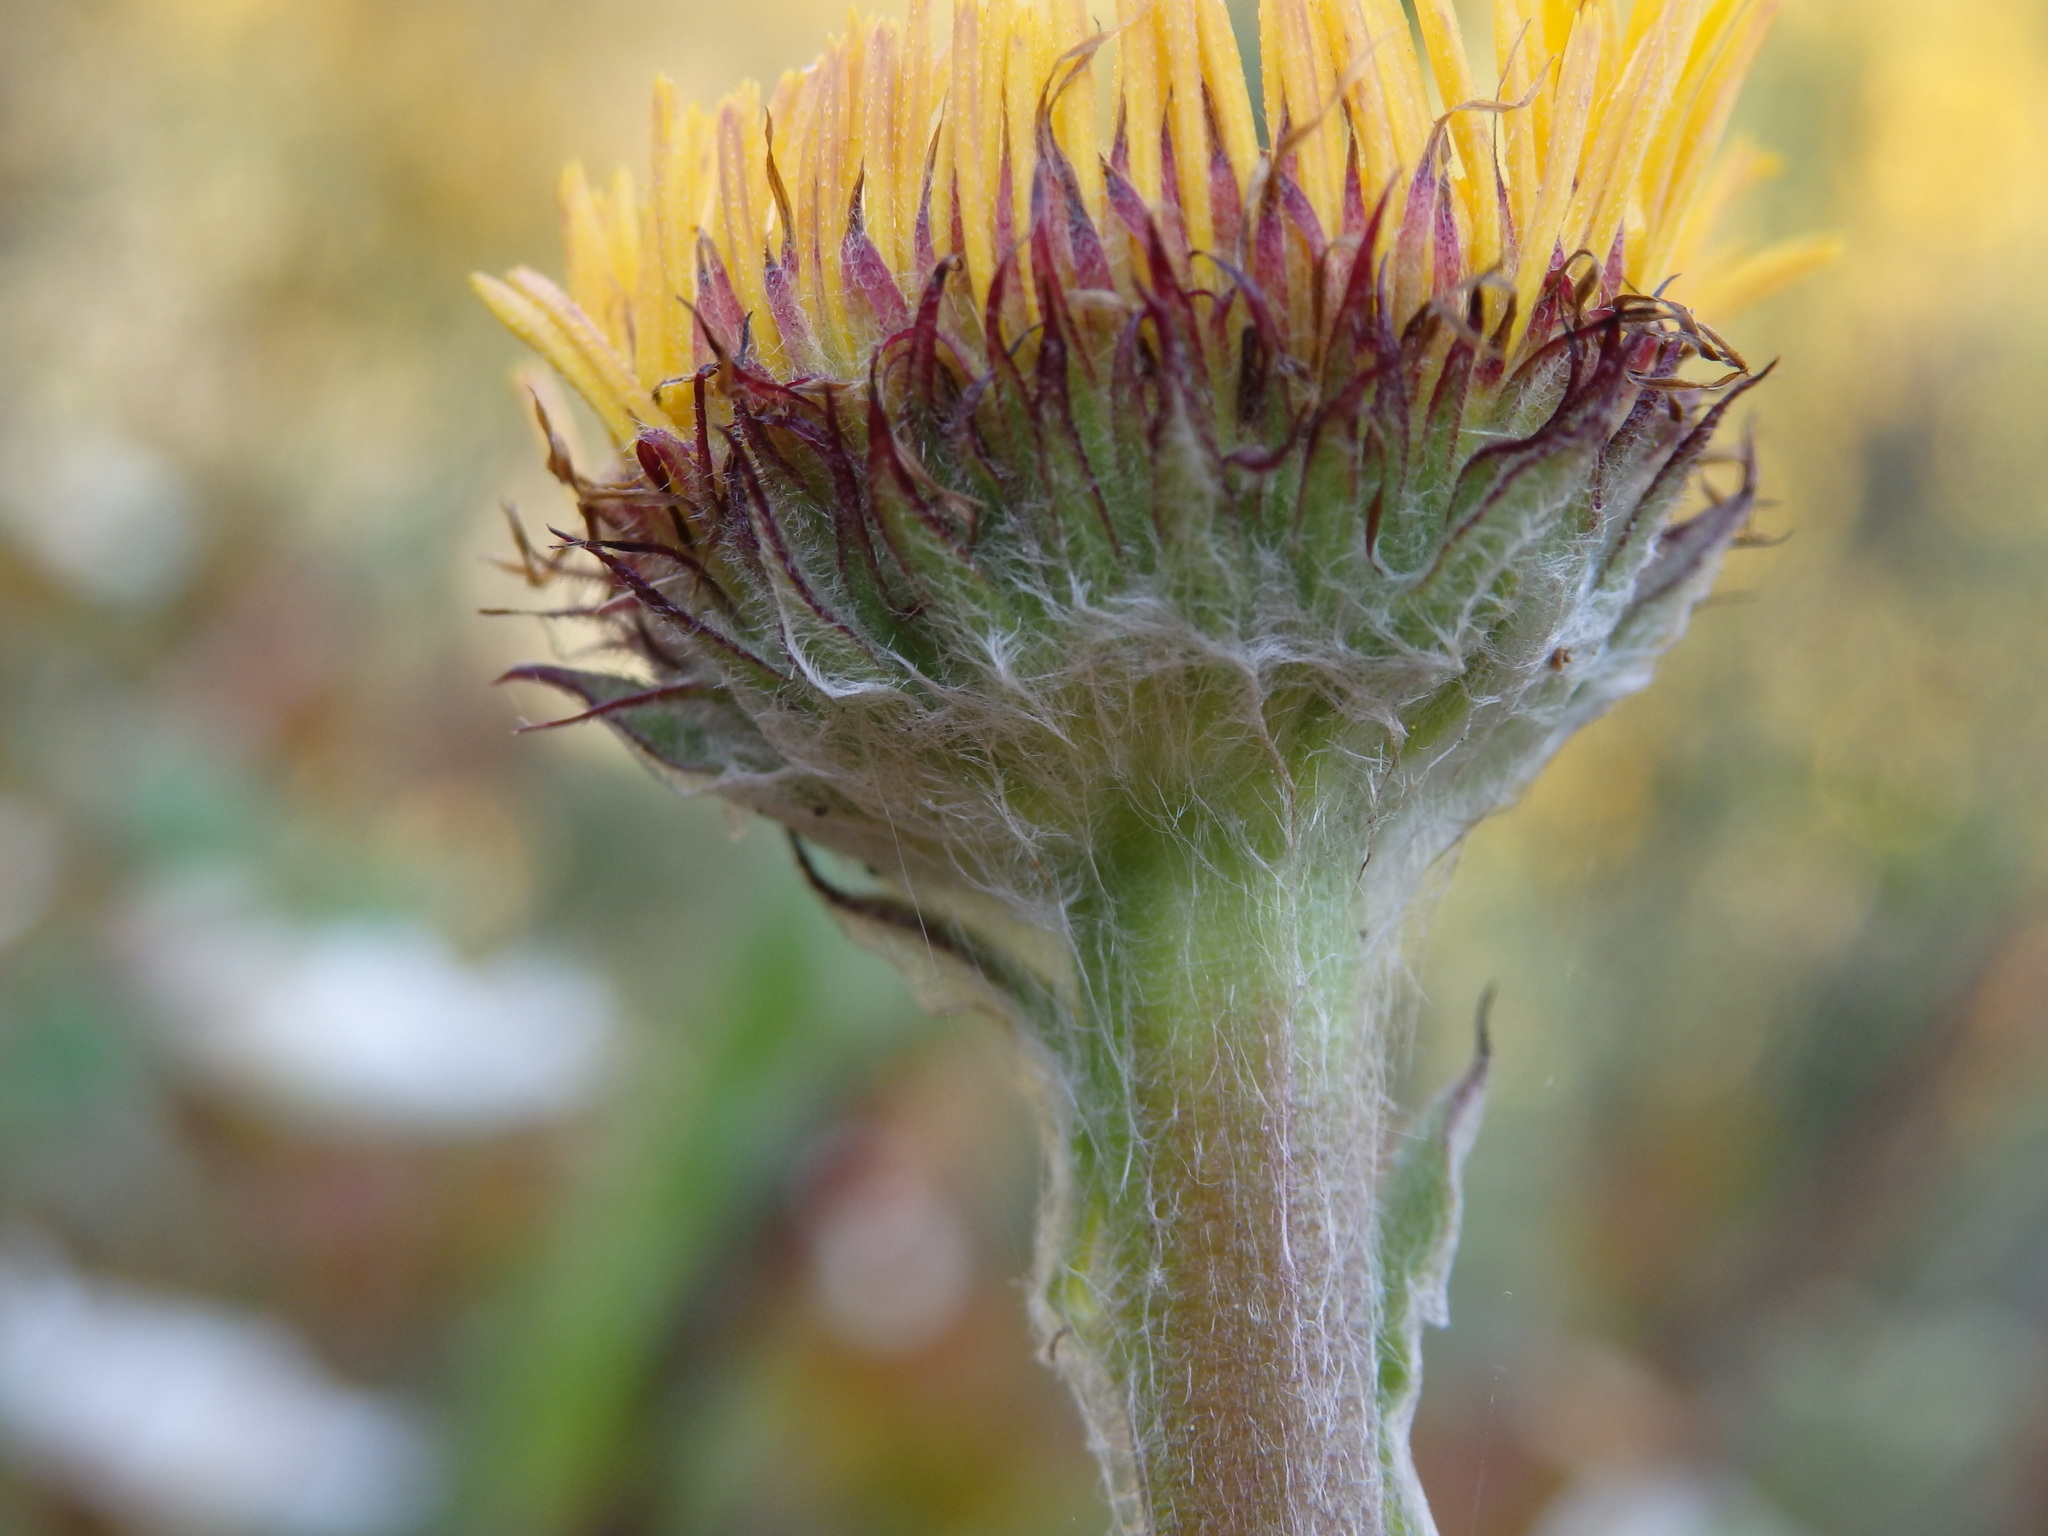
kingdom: Plantae
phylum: Tracheophyta
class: Magnoliopsida
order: Asterales
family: Asteraceae
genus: Pulicaria
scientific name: Pulicaria odora
